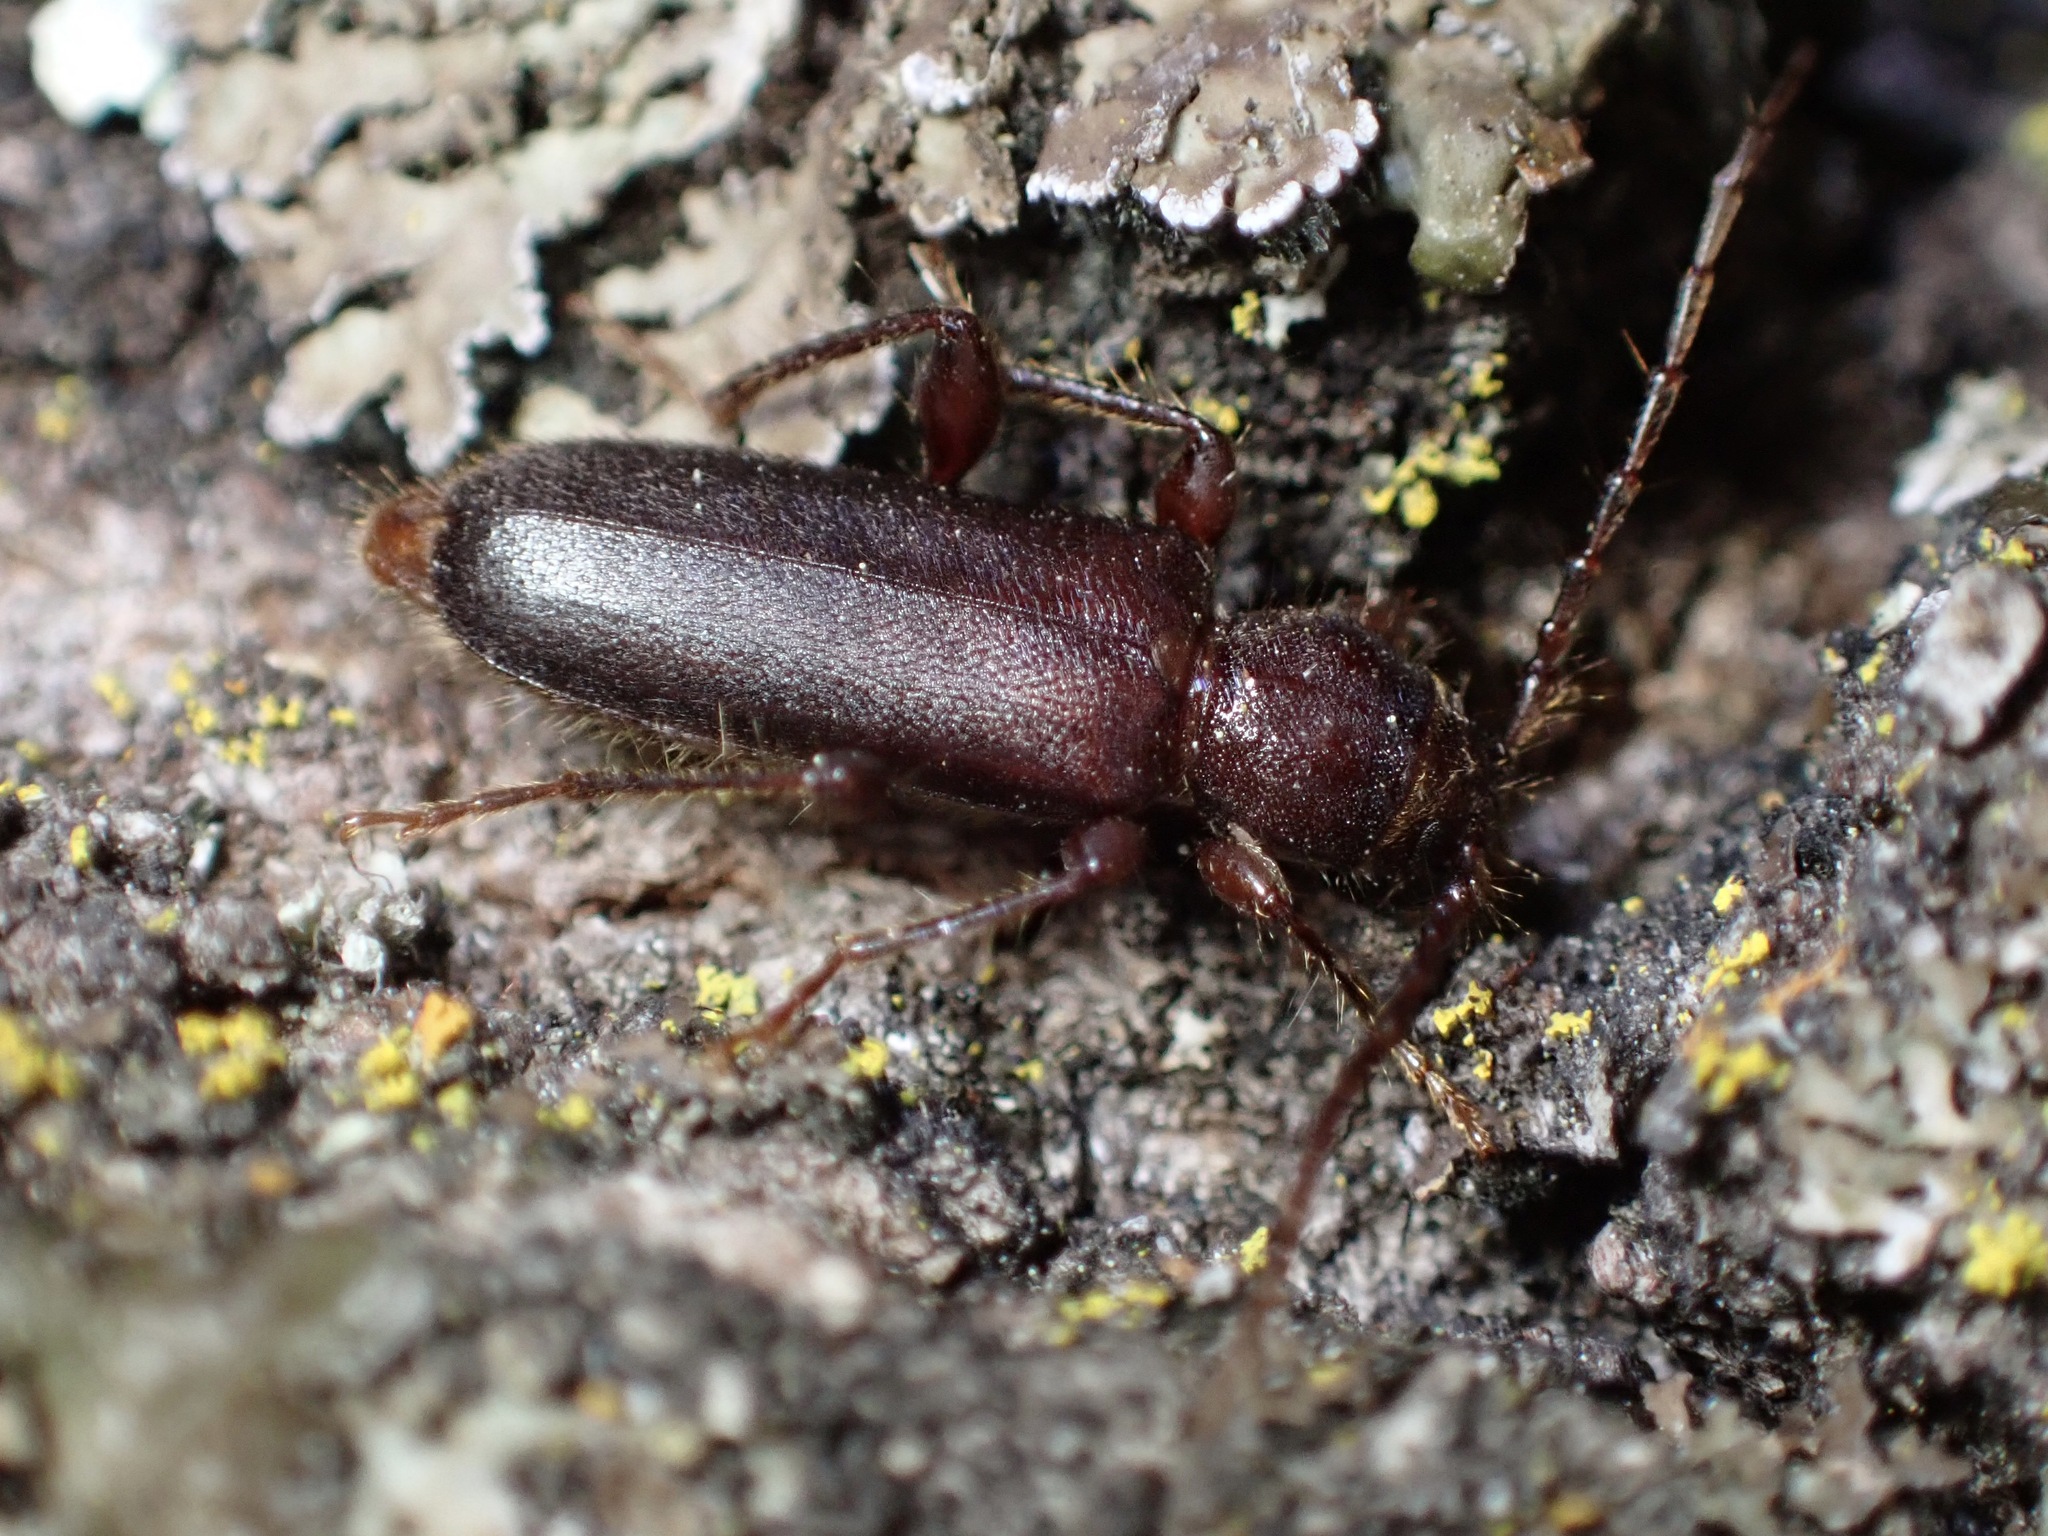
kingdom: Animalia
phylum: Arthropoda
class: Insecta
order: Coleoptera
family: Cerambycidae
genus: Phymatodes
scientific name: Phymatodes grandis
